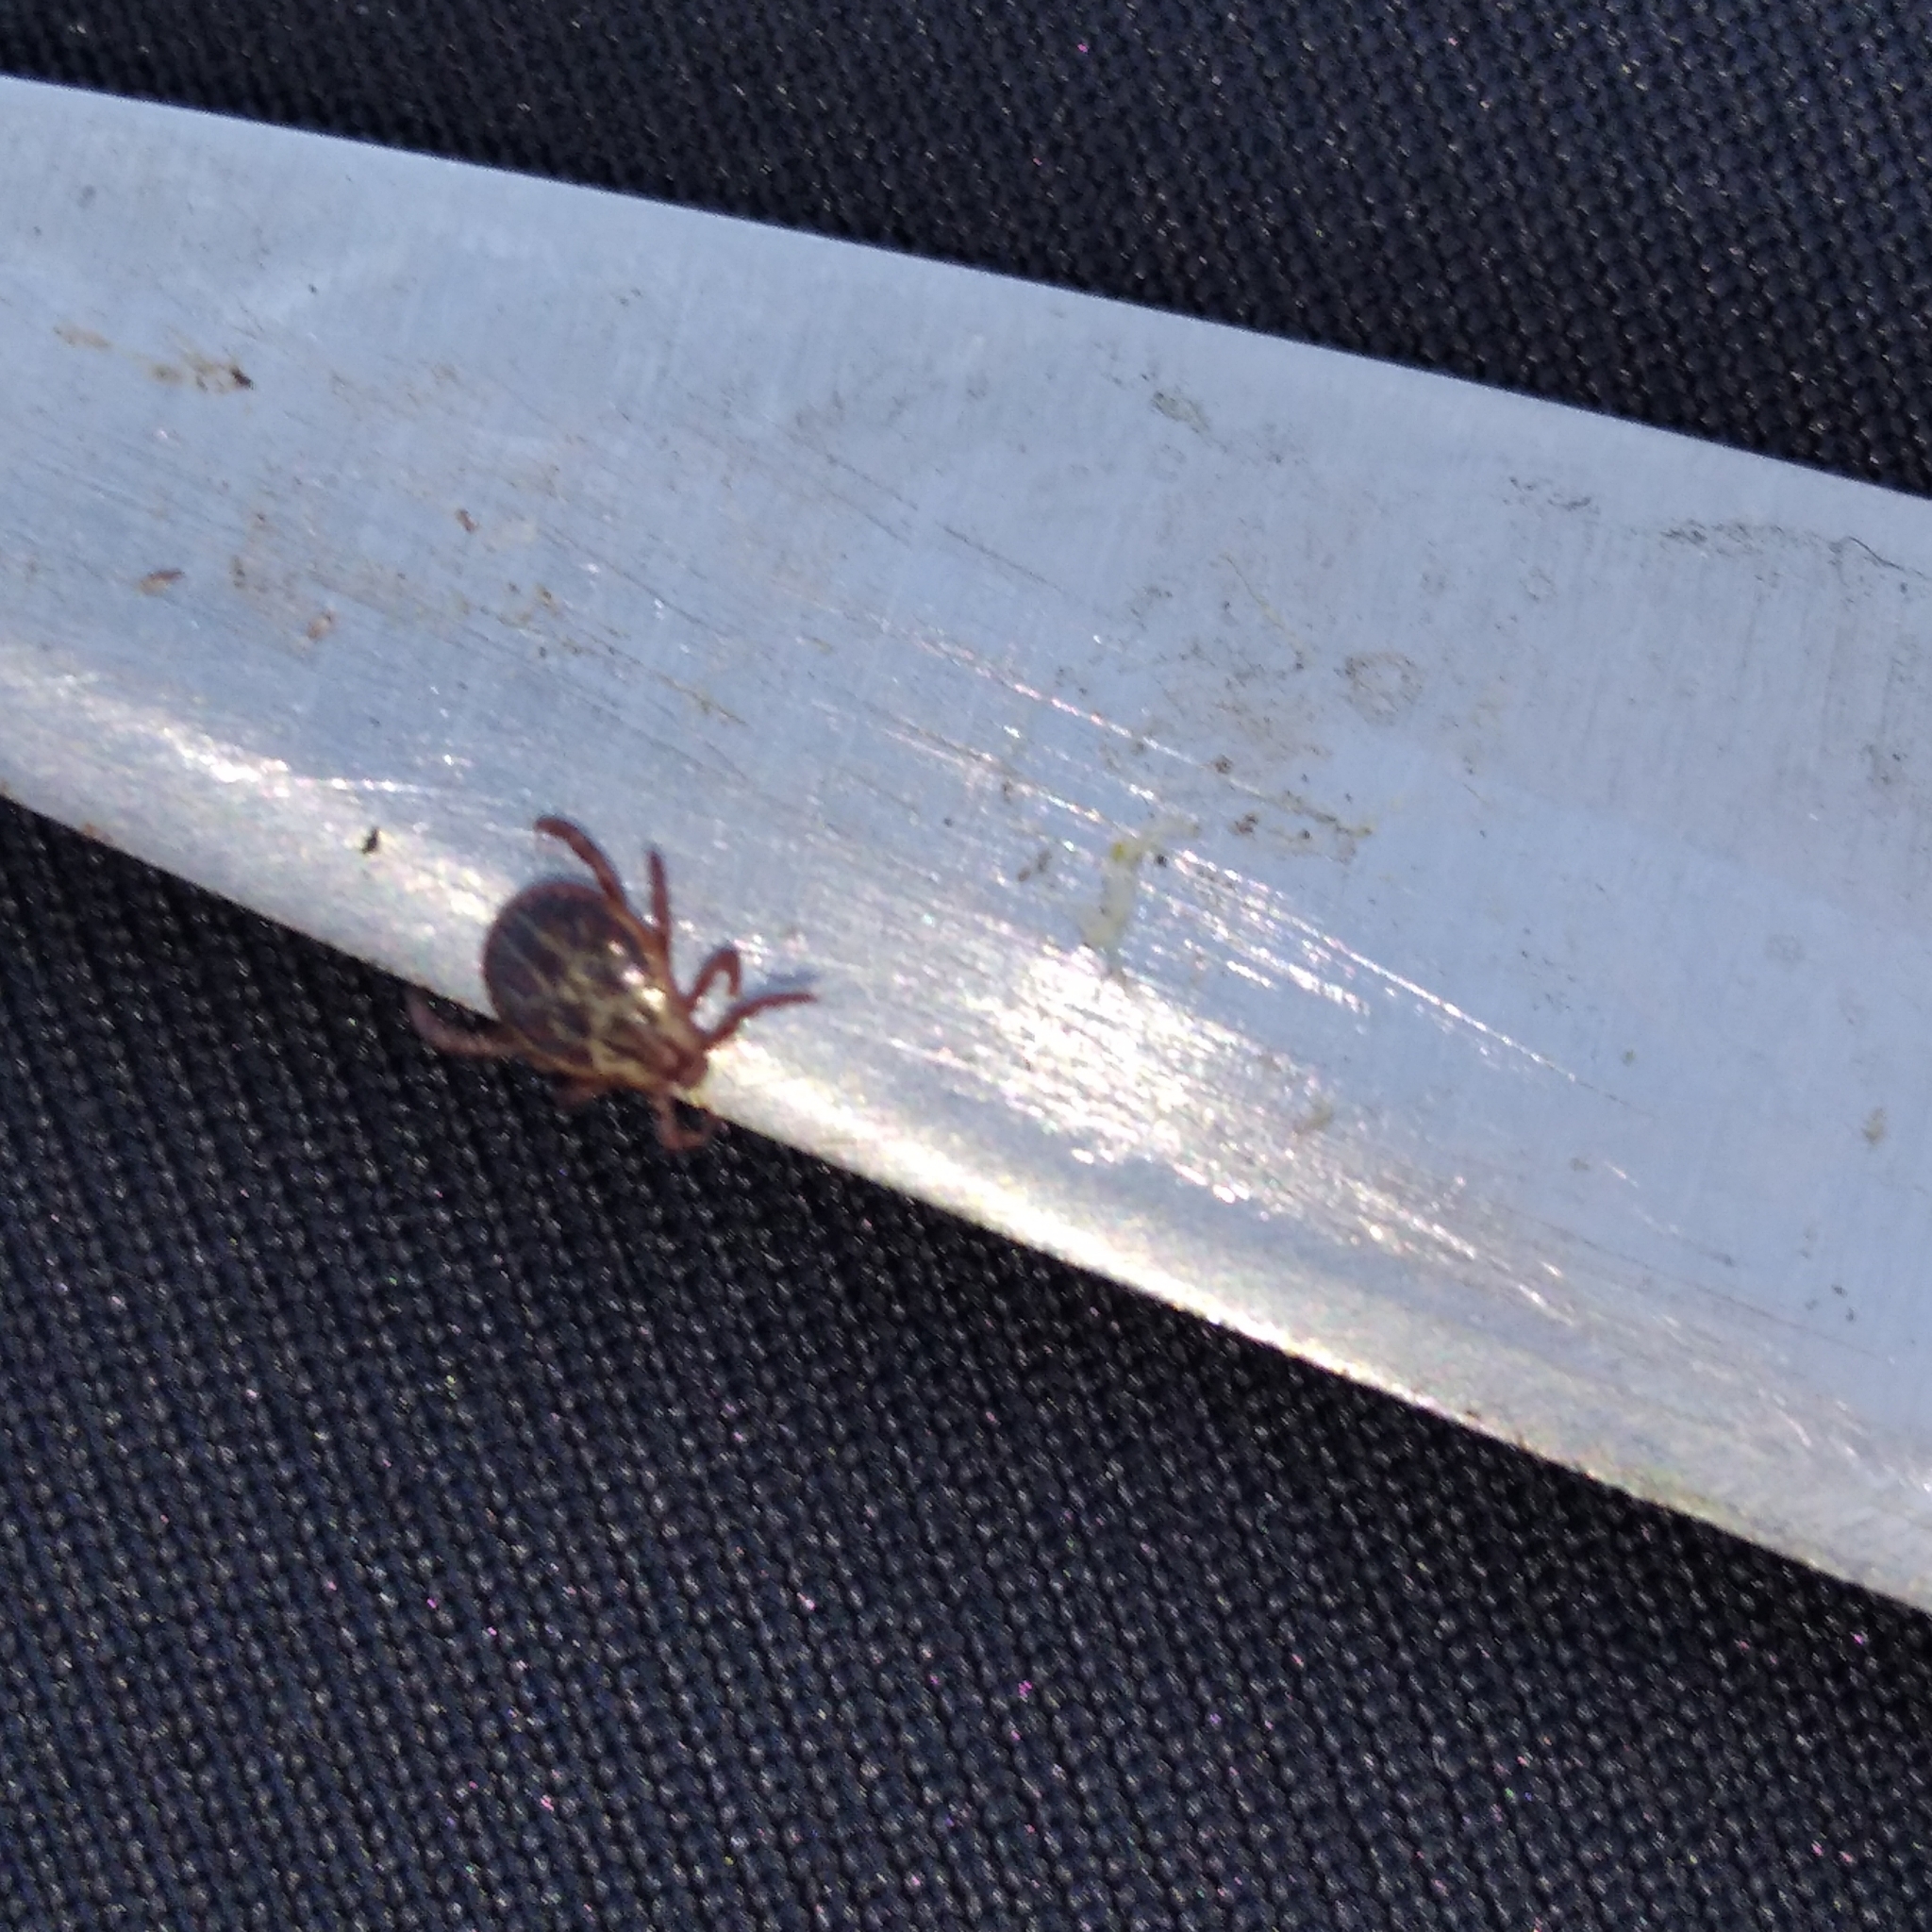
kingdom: Animalia
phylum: Arthropoda
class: Arachnida
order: Ixodida
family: Ixodidae
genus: Dermacentor
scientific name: Dermacentor reticulatus
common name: Ornate cow tick
